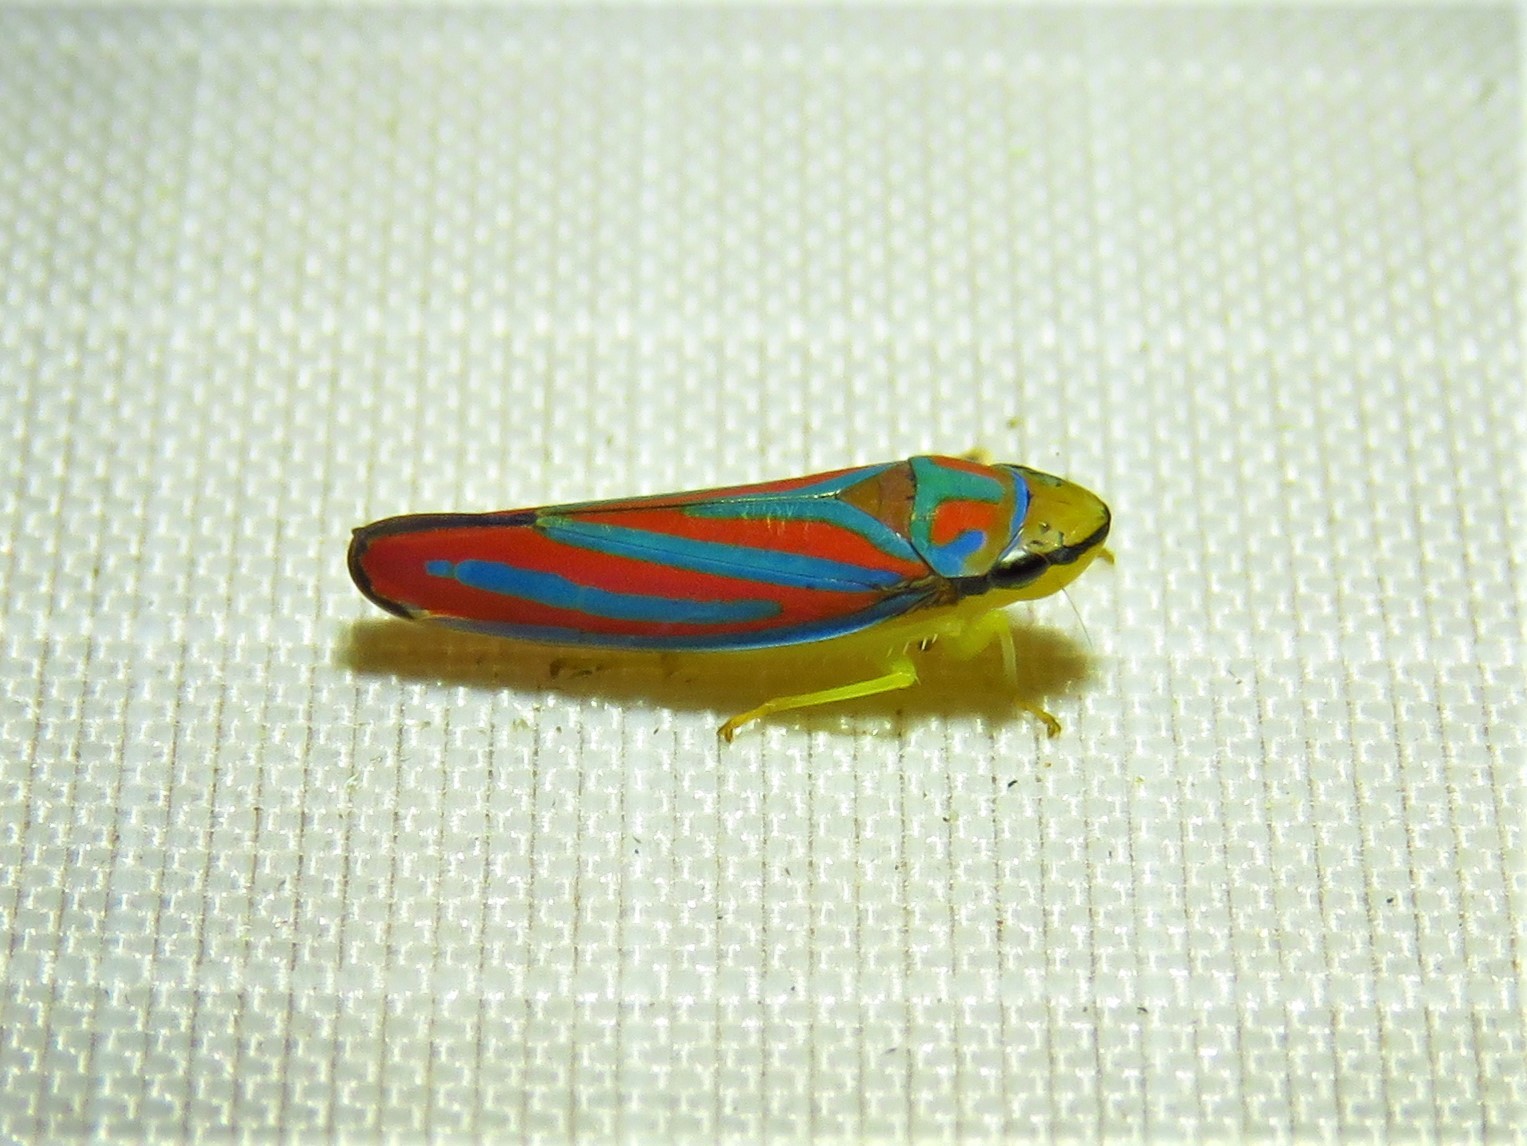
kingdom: Animalia
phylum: Arthropoda
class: Insecta
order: Hemiptera
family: Cicadellidae
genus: Graphocephala
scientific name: Graphocephala coccinea
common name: Candy-striped leafhopper
